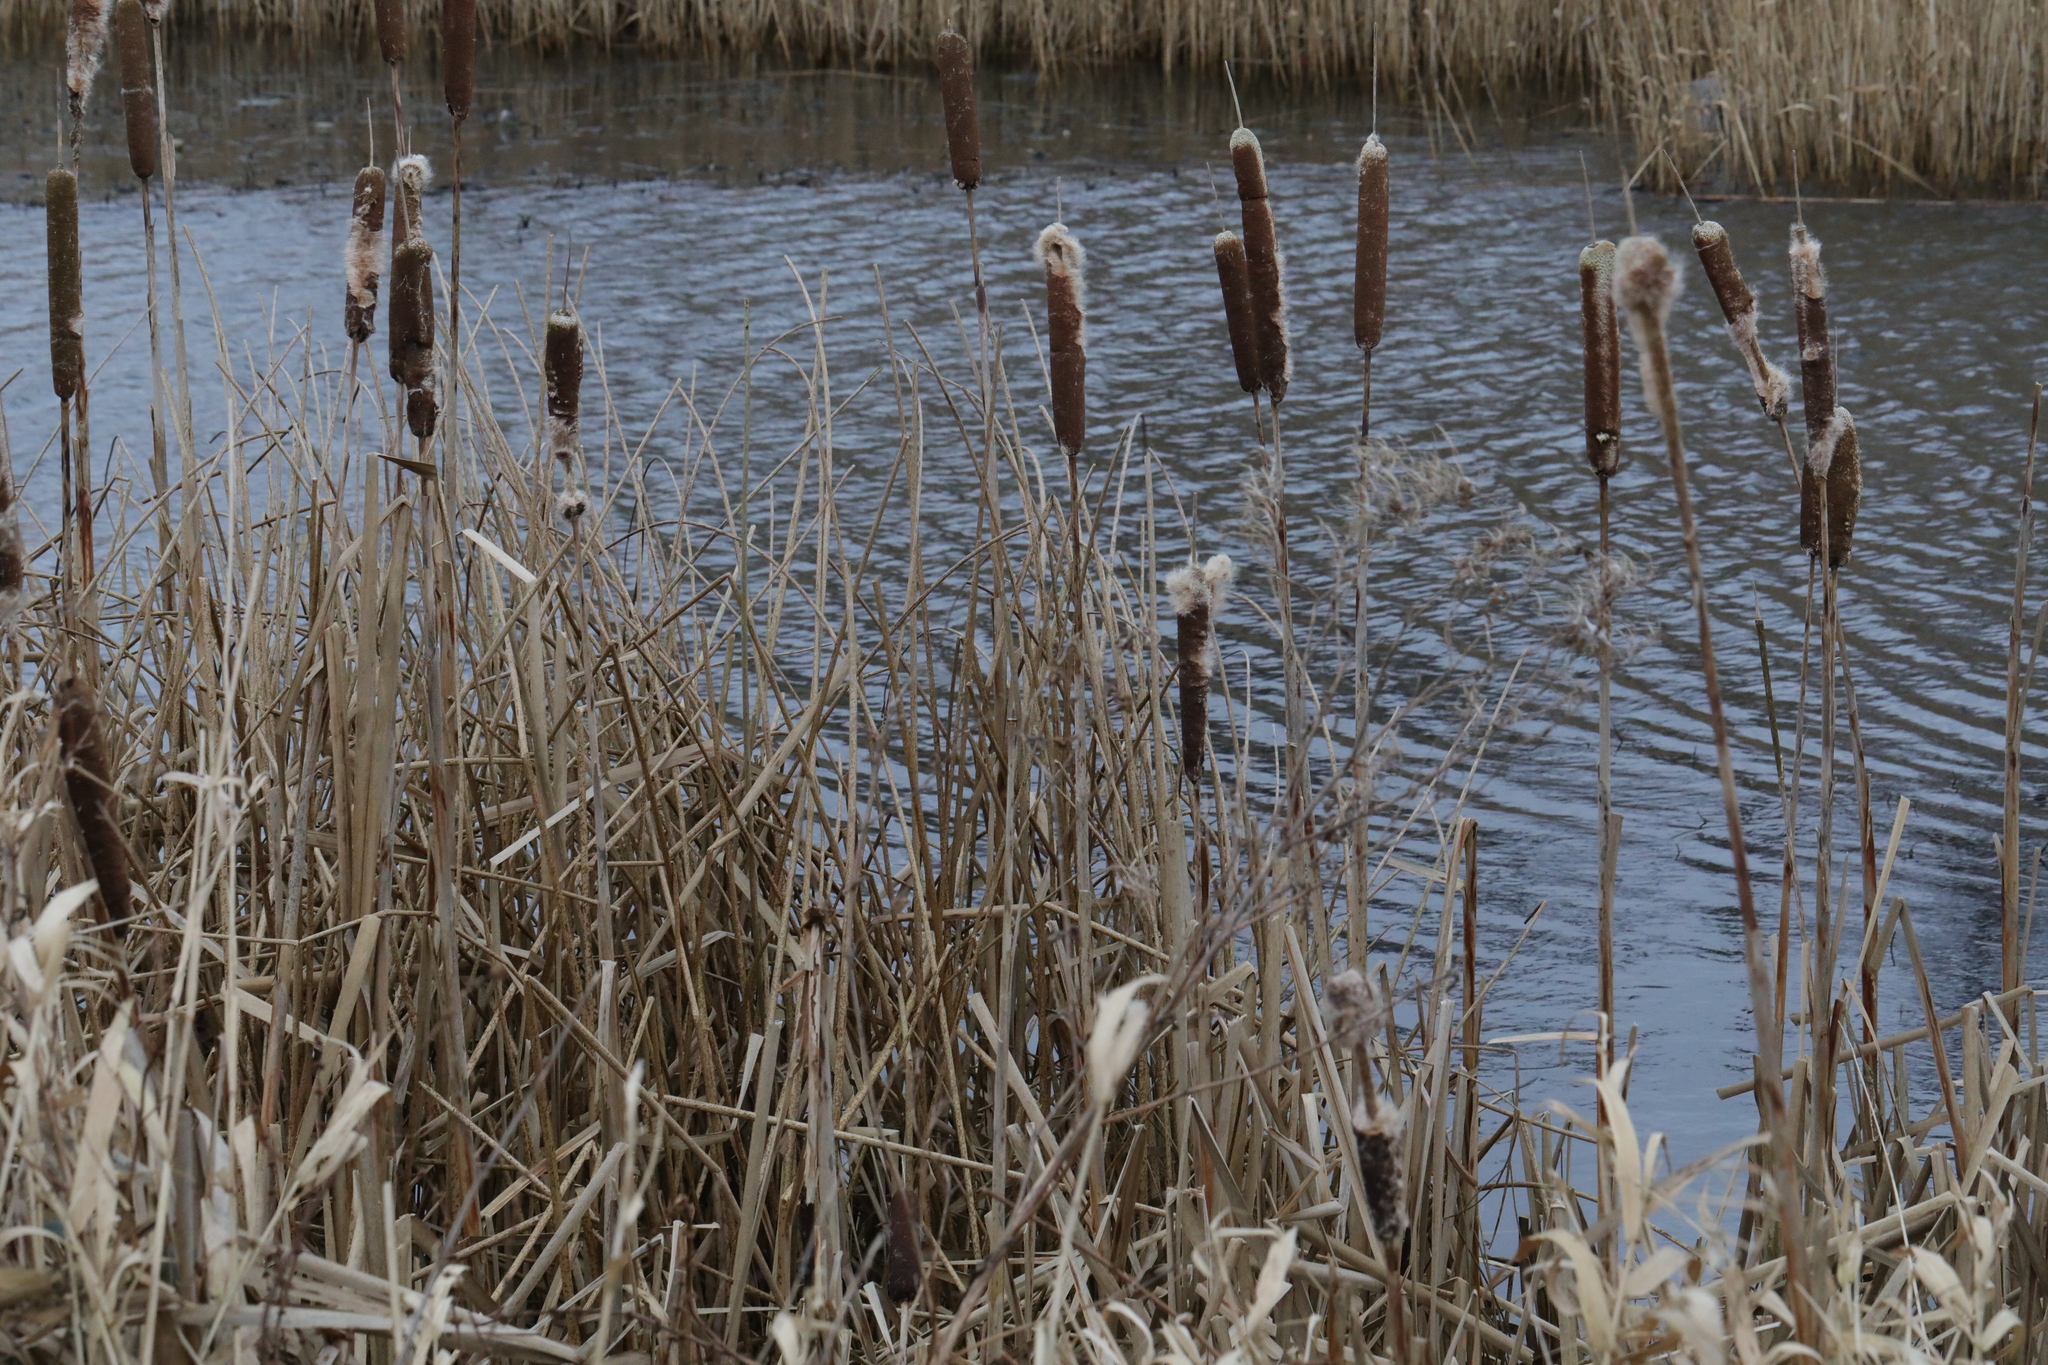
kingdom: Plantae
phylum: Tracheophyta
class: Liliopsida
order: Poales
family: Typhaceae
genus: Typha
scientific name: Typha latifolia
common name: Broadleaf cattail
